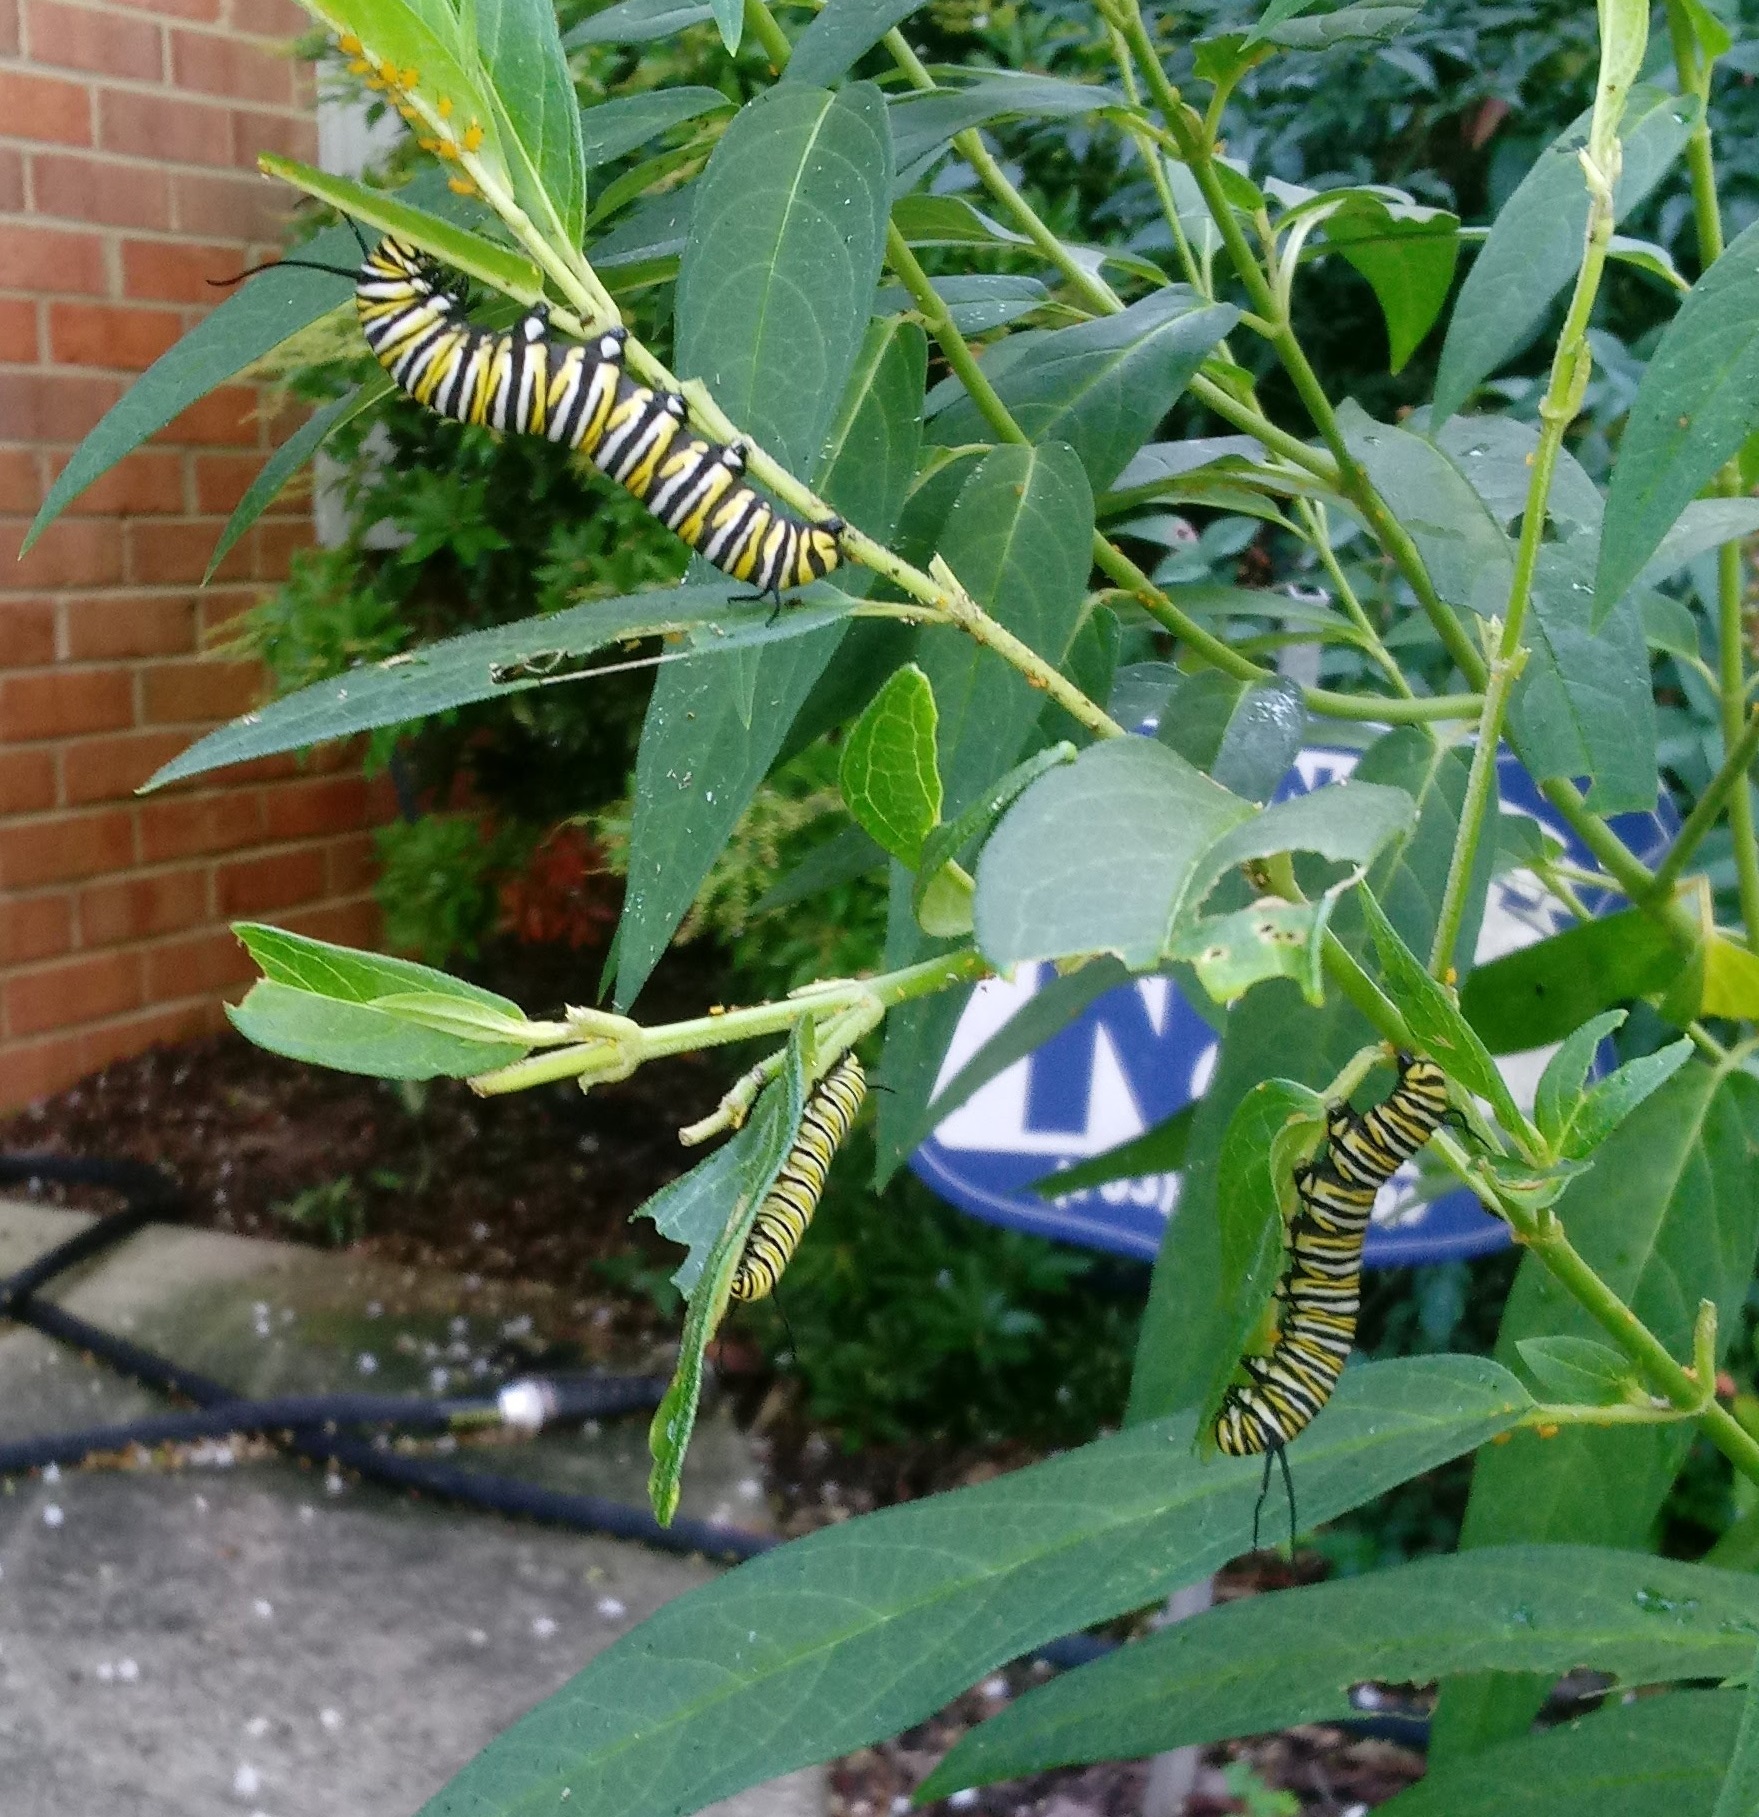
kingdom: Animalia
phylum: Arthropoda
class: Insecta
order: Lepidoptera
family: Nymphalidae
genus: Danaus
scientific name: Danaus plexippus
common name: Monarch
